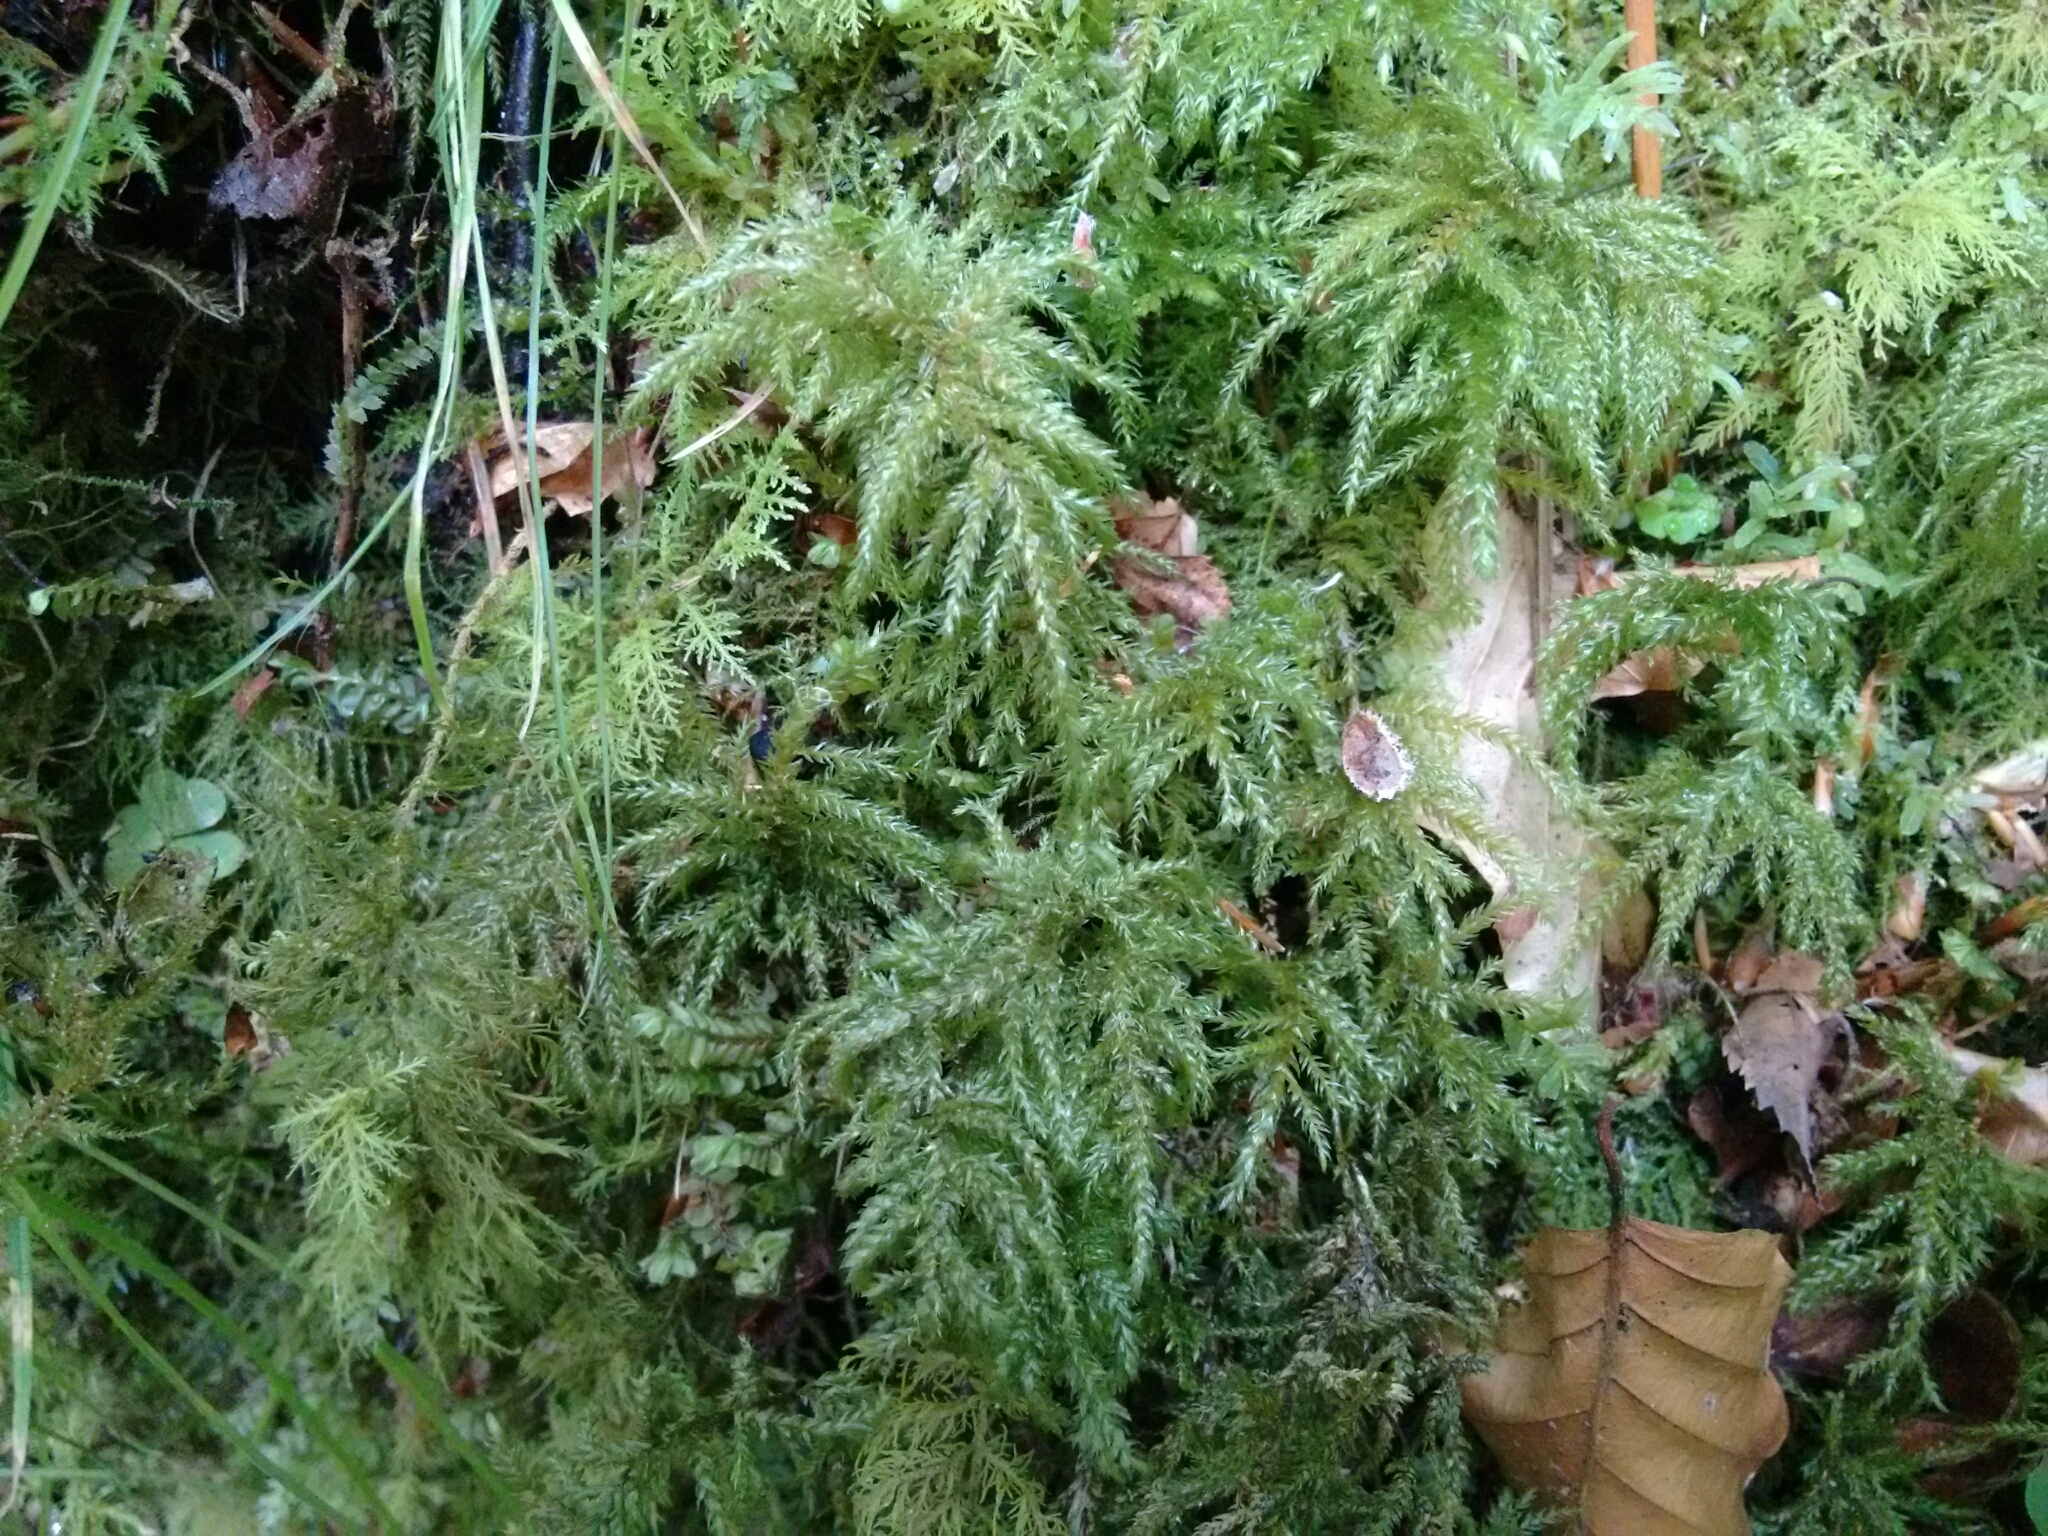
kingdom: Plantae
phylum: Bryophyta
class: Bryopsida
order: Hypnales
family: Neckeraceae
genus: Thamnobryum
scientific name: Thamnobryum alopecurum
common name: Fox-tail feather-moss
